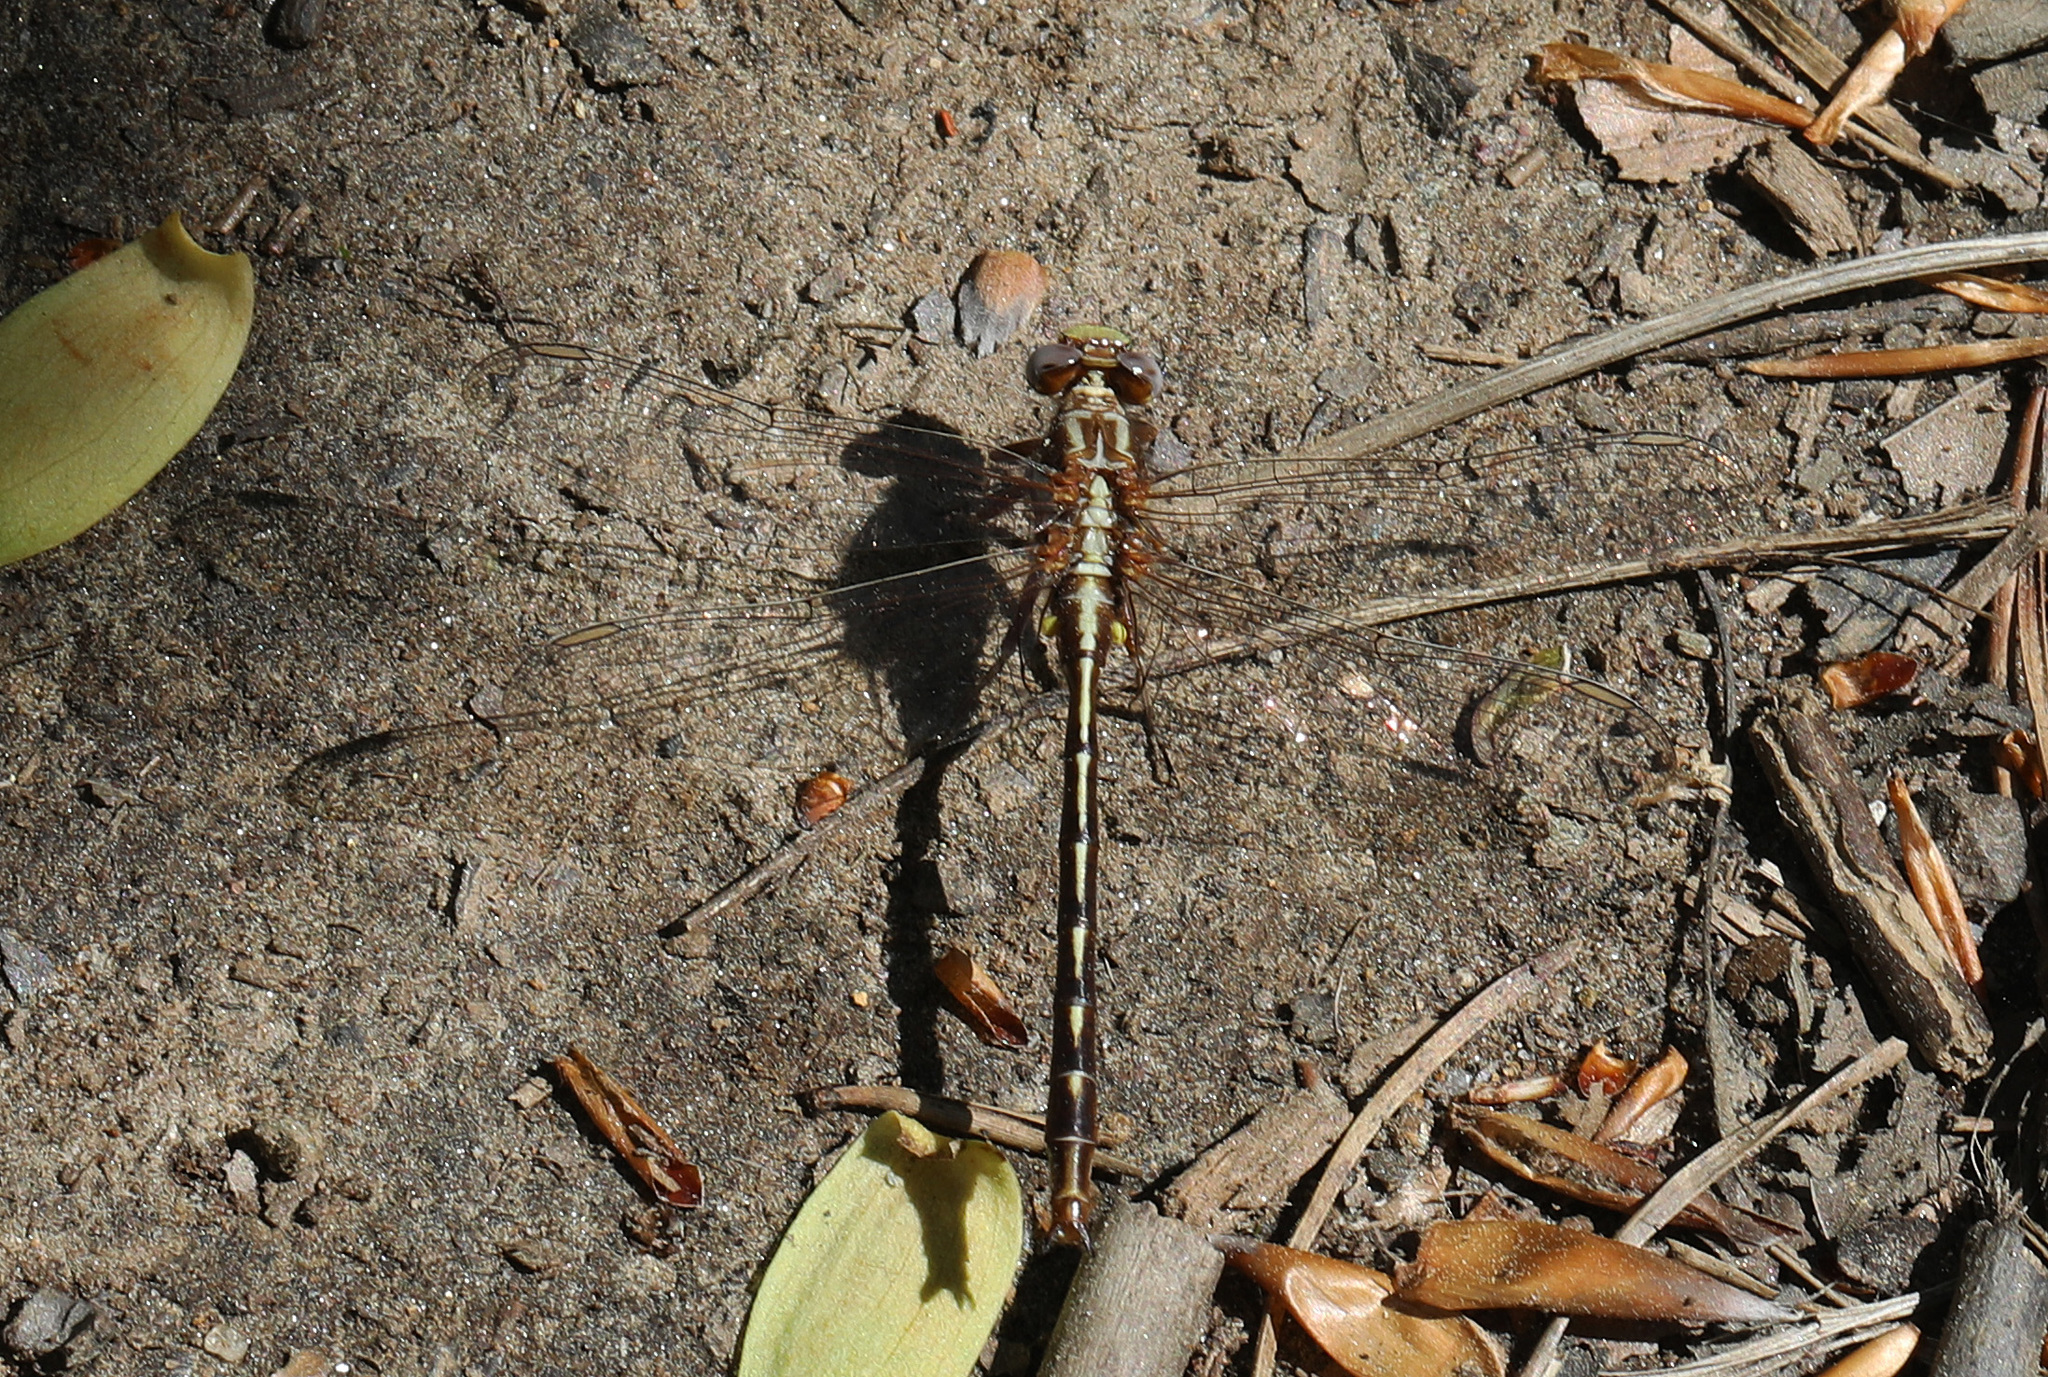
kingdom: Animalia
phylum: Arthropoda
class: Insecta
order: Odonata
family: Gomphidae
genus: Phanogomphus
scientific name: Phanogomphus lividus
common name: Ashy clubtail
